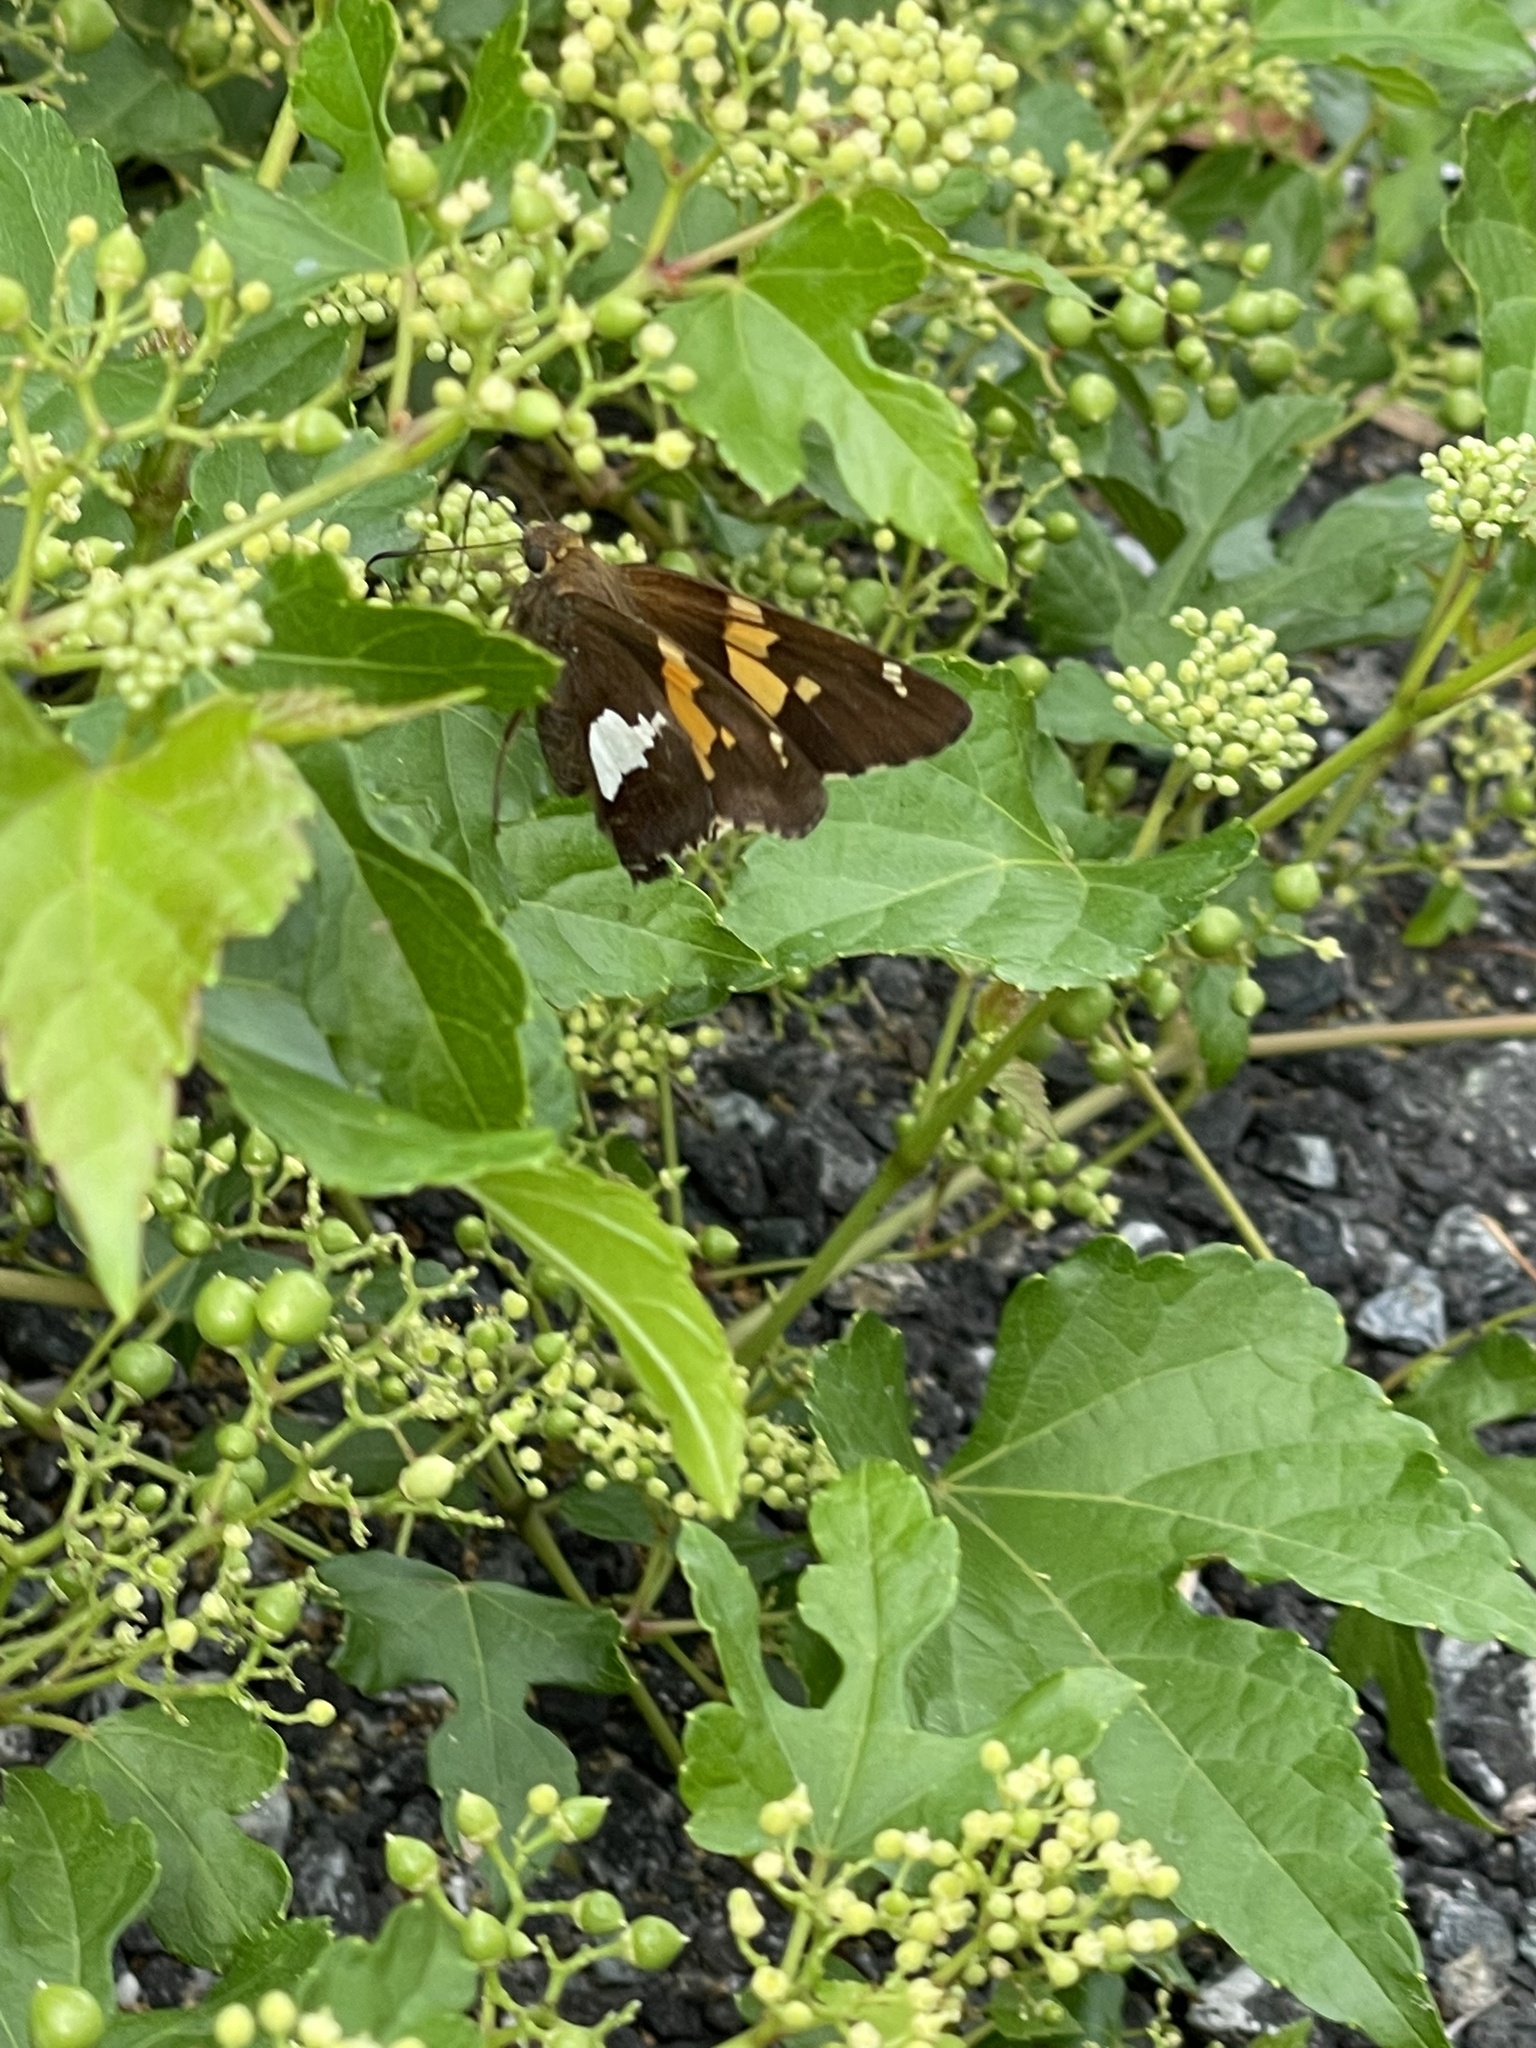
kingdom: Animalia
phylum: Arthropoda
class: Insecta
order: Lepidoptera
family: Hesperiidae
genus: Epargyreus
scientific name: Epargyreus clarus
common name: Silver-spotted skipper
